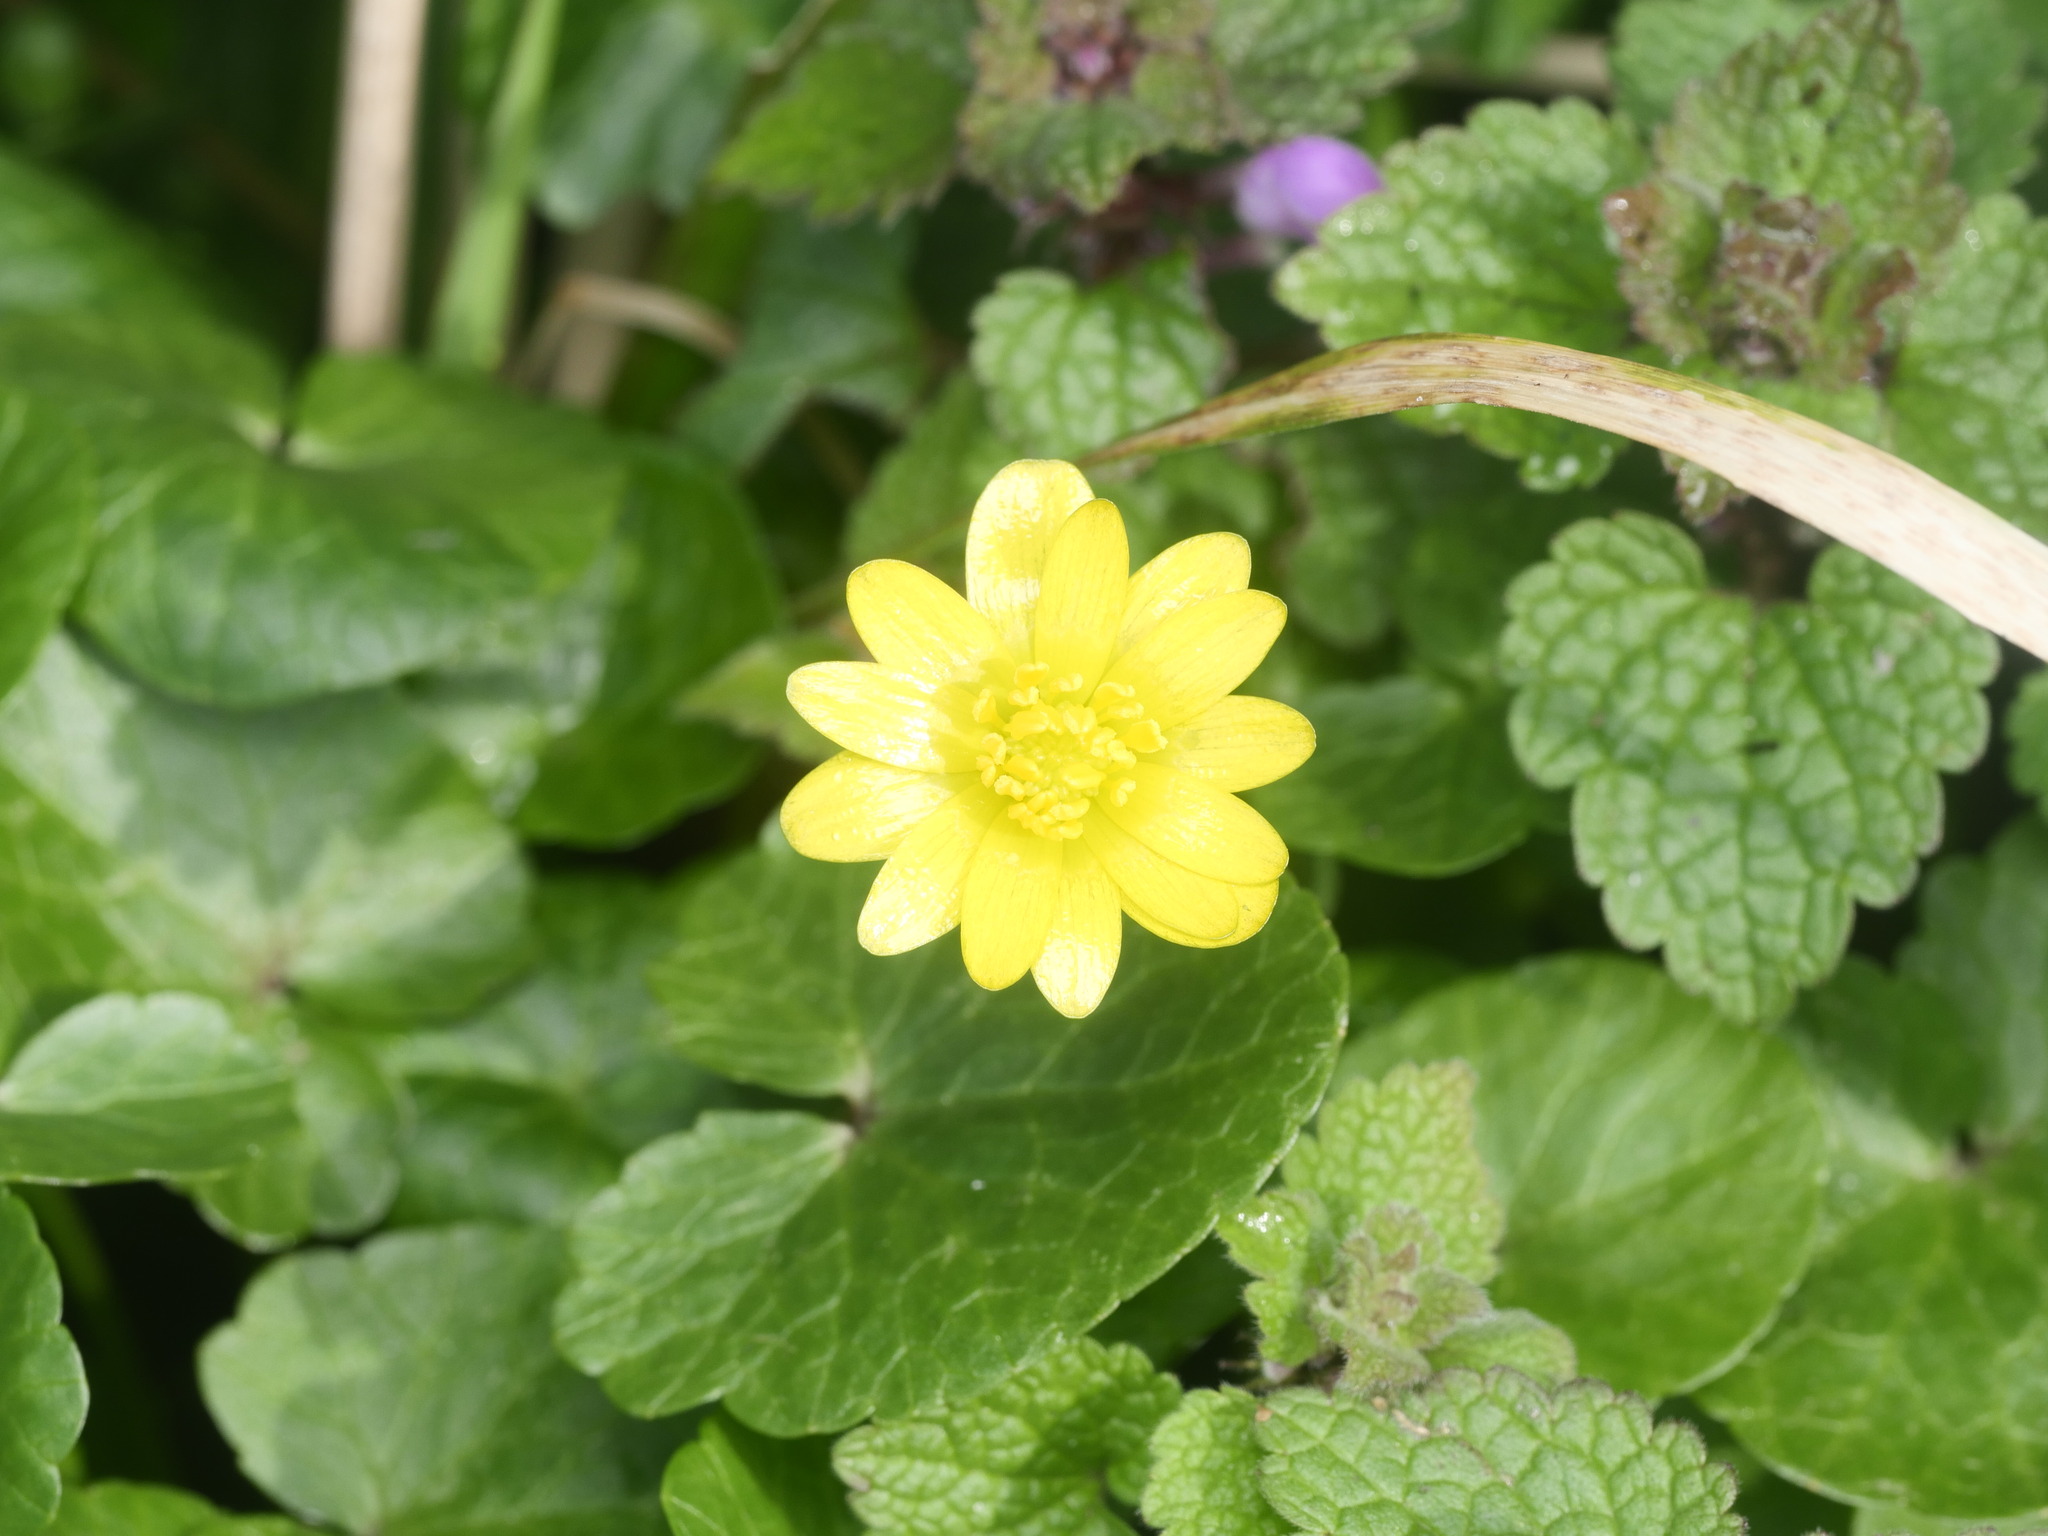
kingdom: Plantae
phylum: Tracheophyta
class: Magnoliopsida
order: Ranunculales
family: Ranunculaceae
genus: Ficaria
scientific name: Ficaria verna
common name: Lesser celandine
